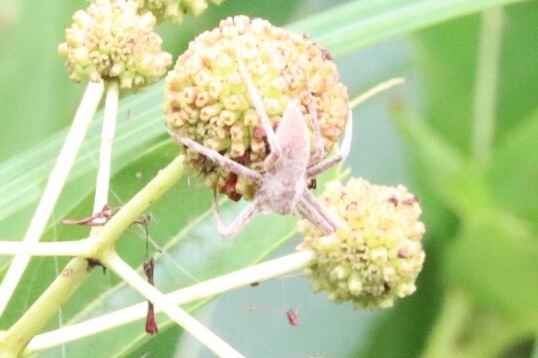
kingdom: Animalia
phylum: Arthropoda
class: Arachnida
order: Araneae
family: Pisauridae
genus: Pisaurina
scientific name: Pisaurina mira
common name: American nursery web spider
